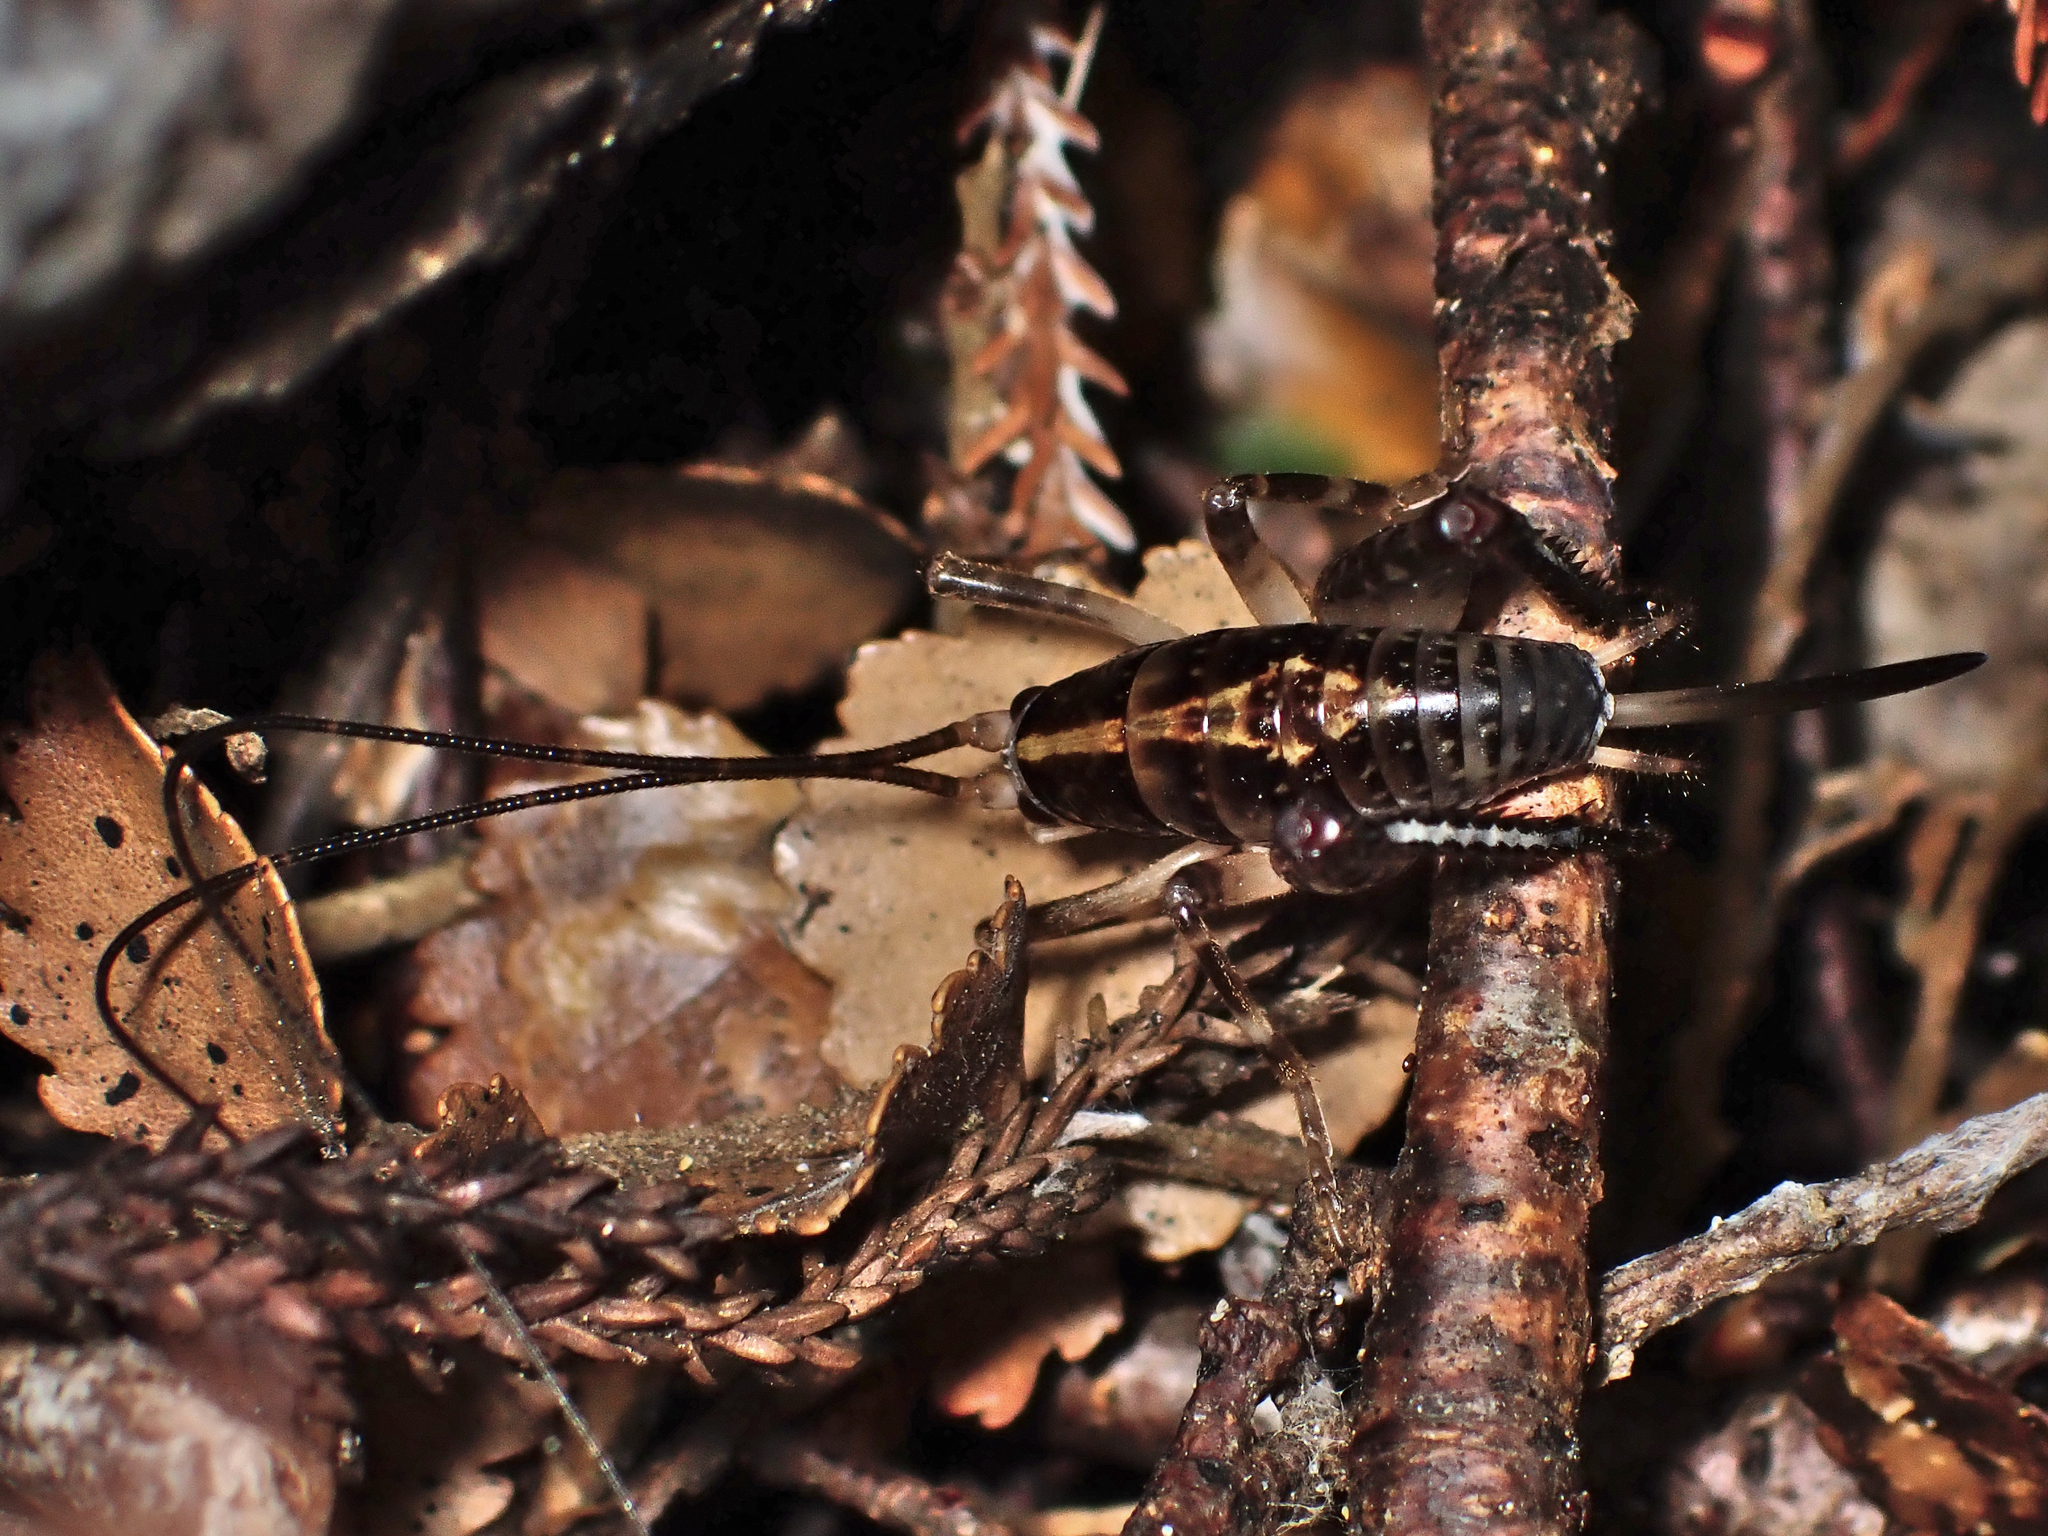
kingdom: Animalia
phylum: Arthropoda
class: Insecta
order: Orthoptera
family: Rhaphidophoridae
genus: Talitropsis
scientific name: Talitropsis sedilloti
